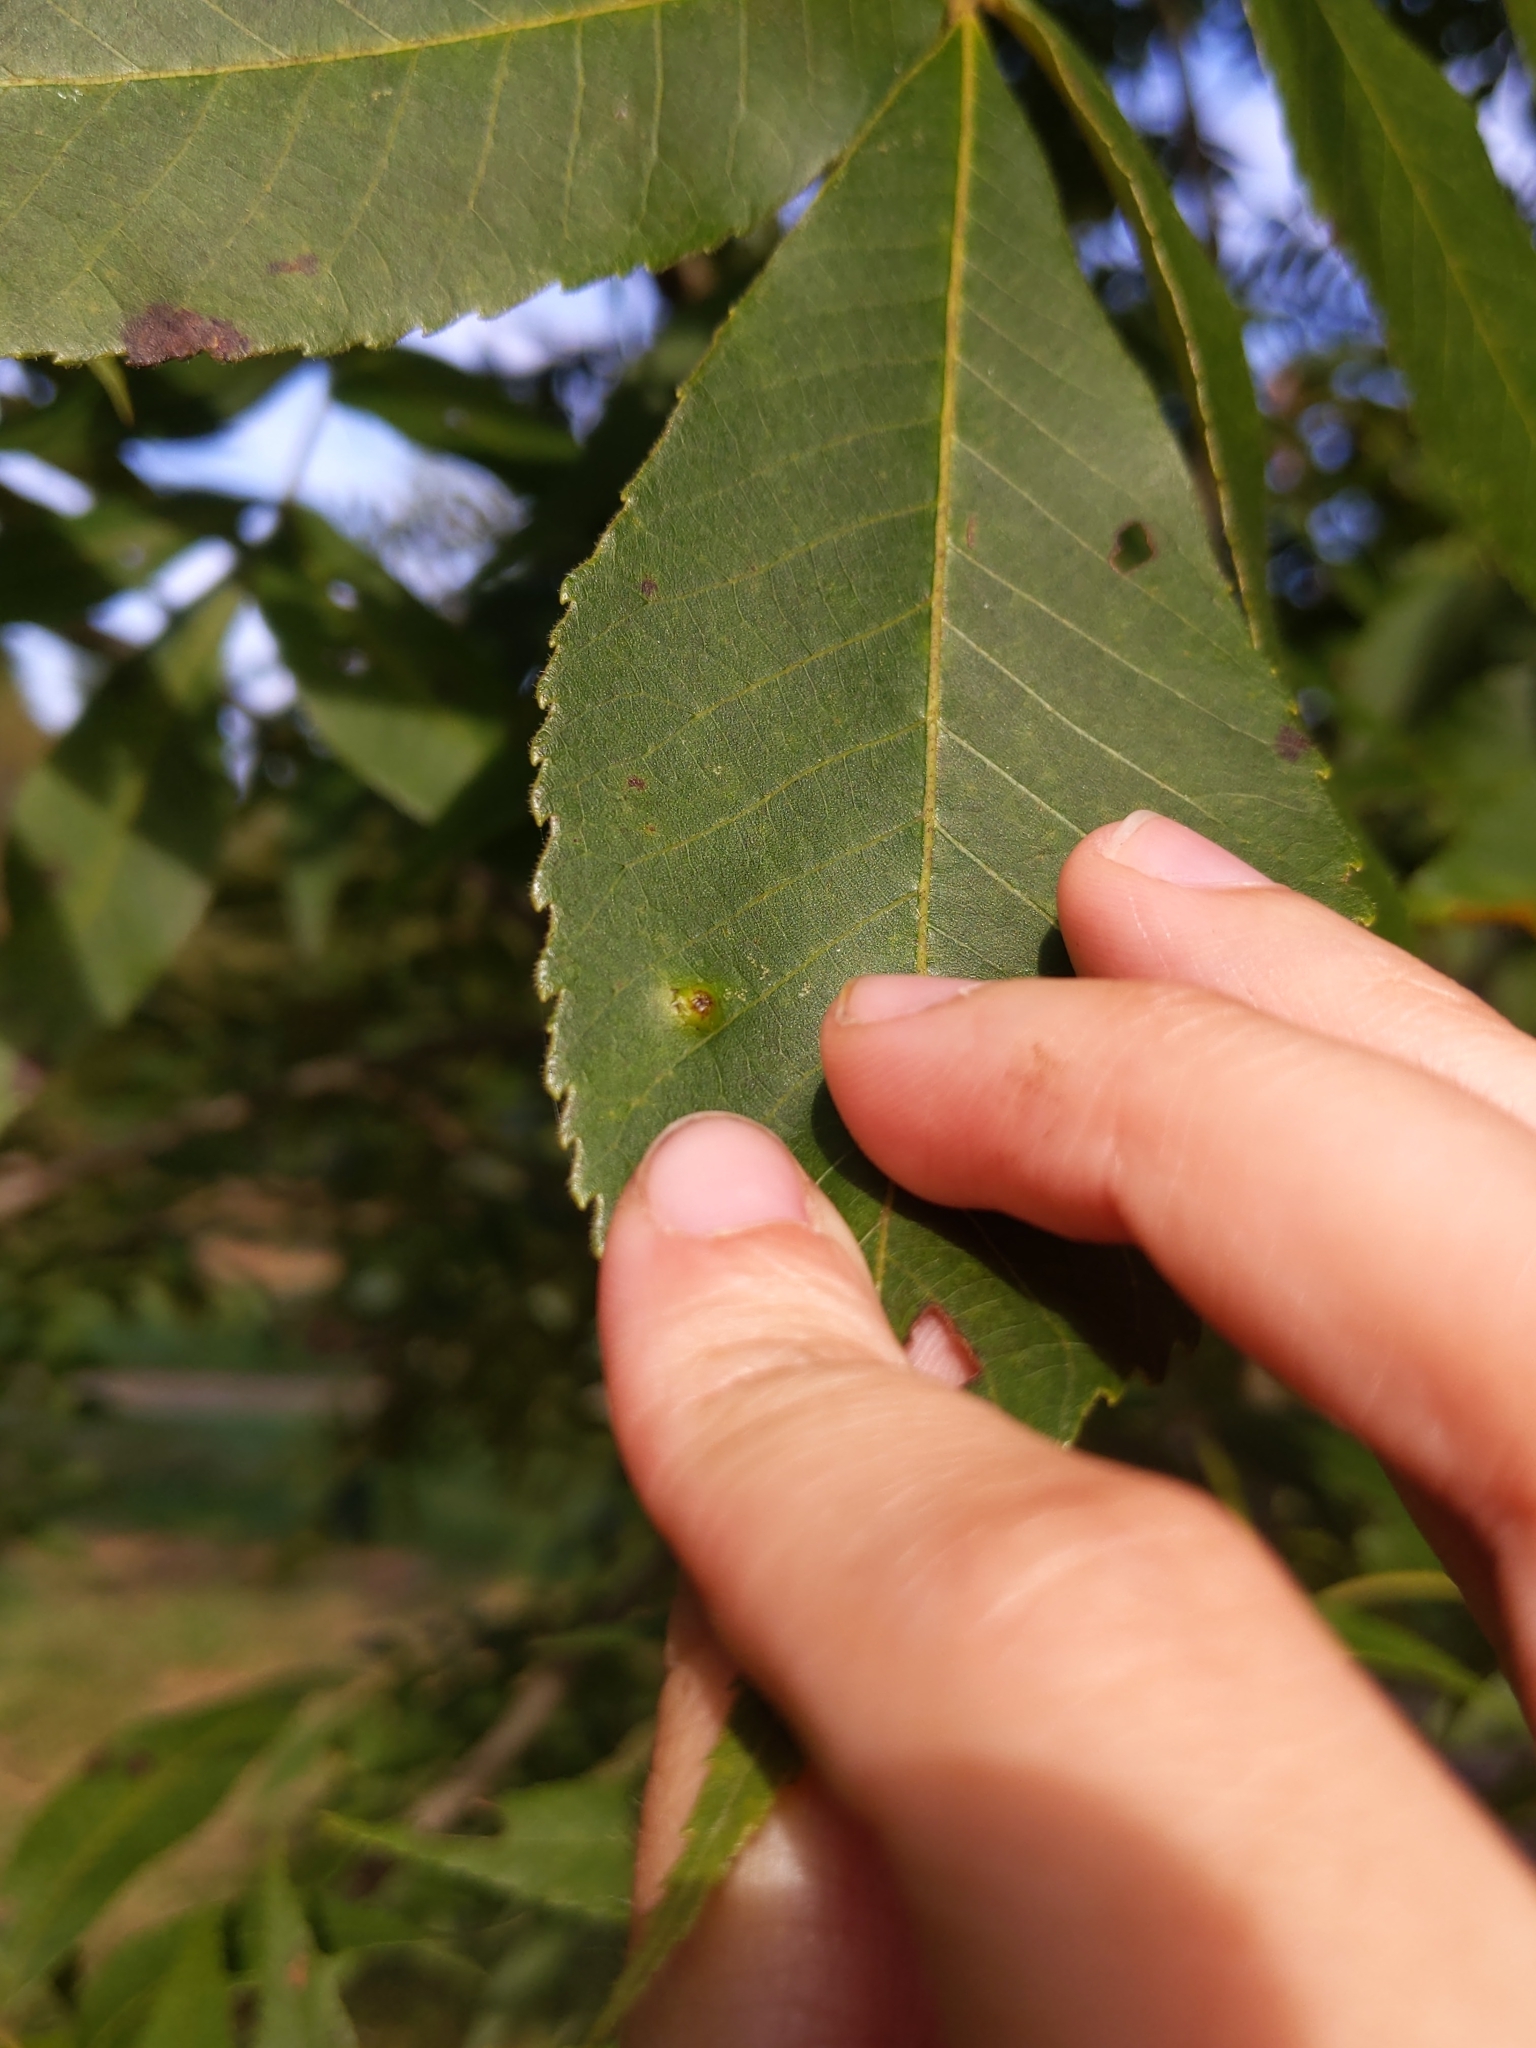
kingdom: Animalia
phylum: Arthropoda
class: Insecta
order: Diptera
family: Cecidomyiidae
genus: Caryomyia
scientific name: Caryomyia tubicola
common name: Hickory bullet gall midge
